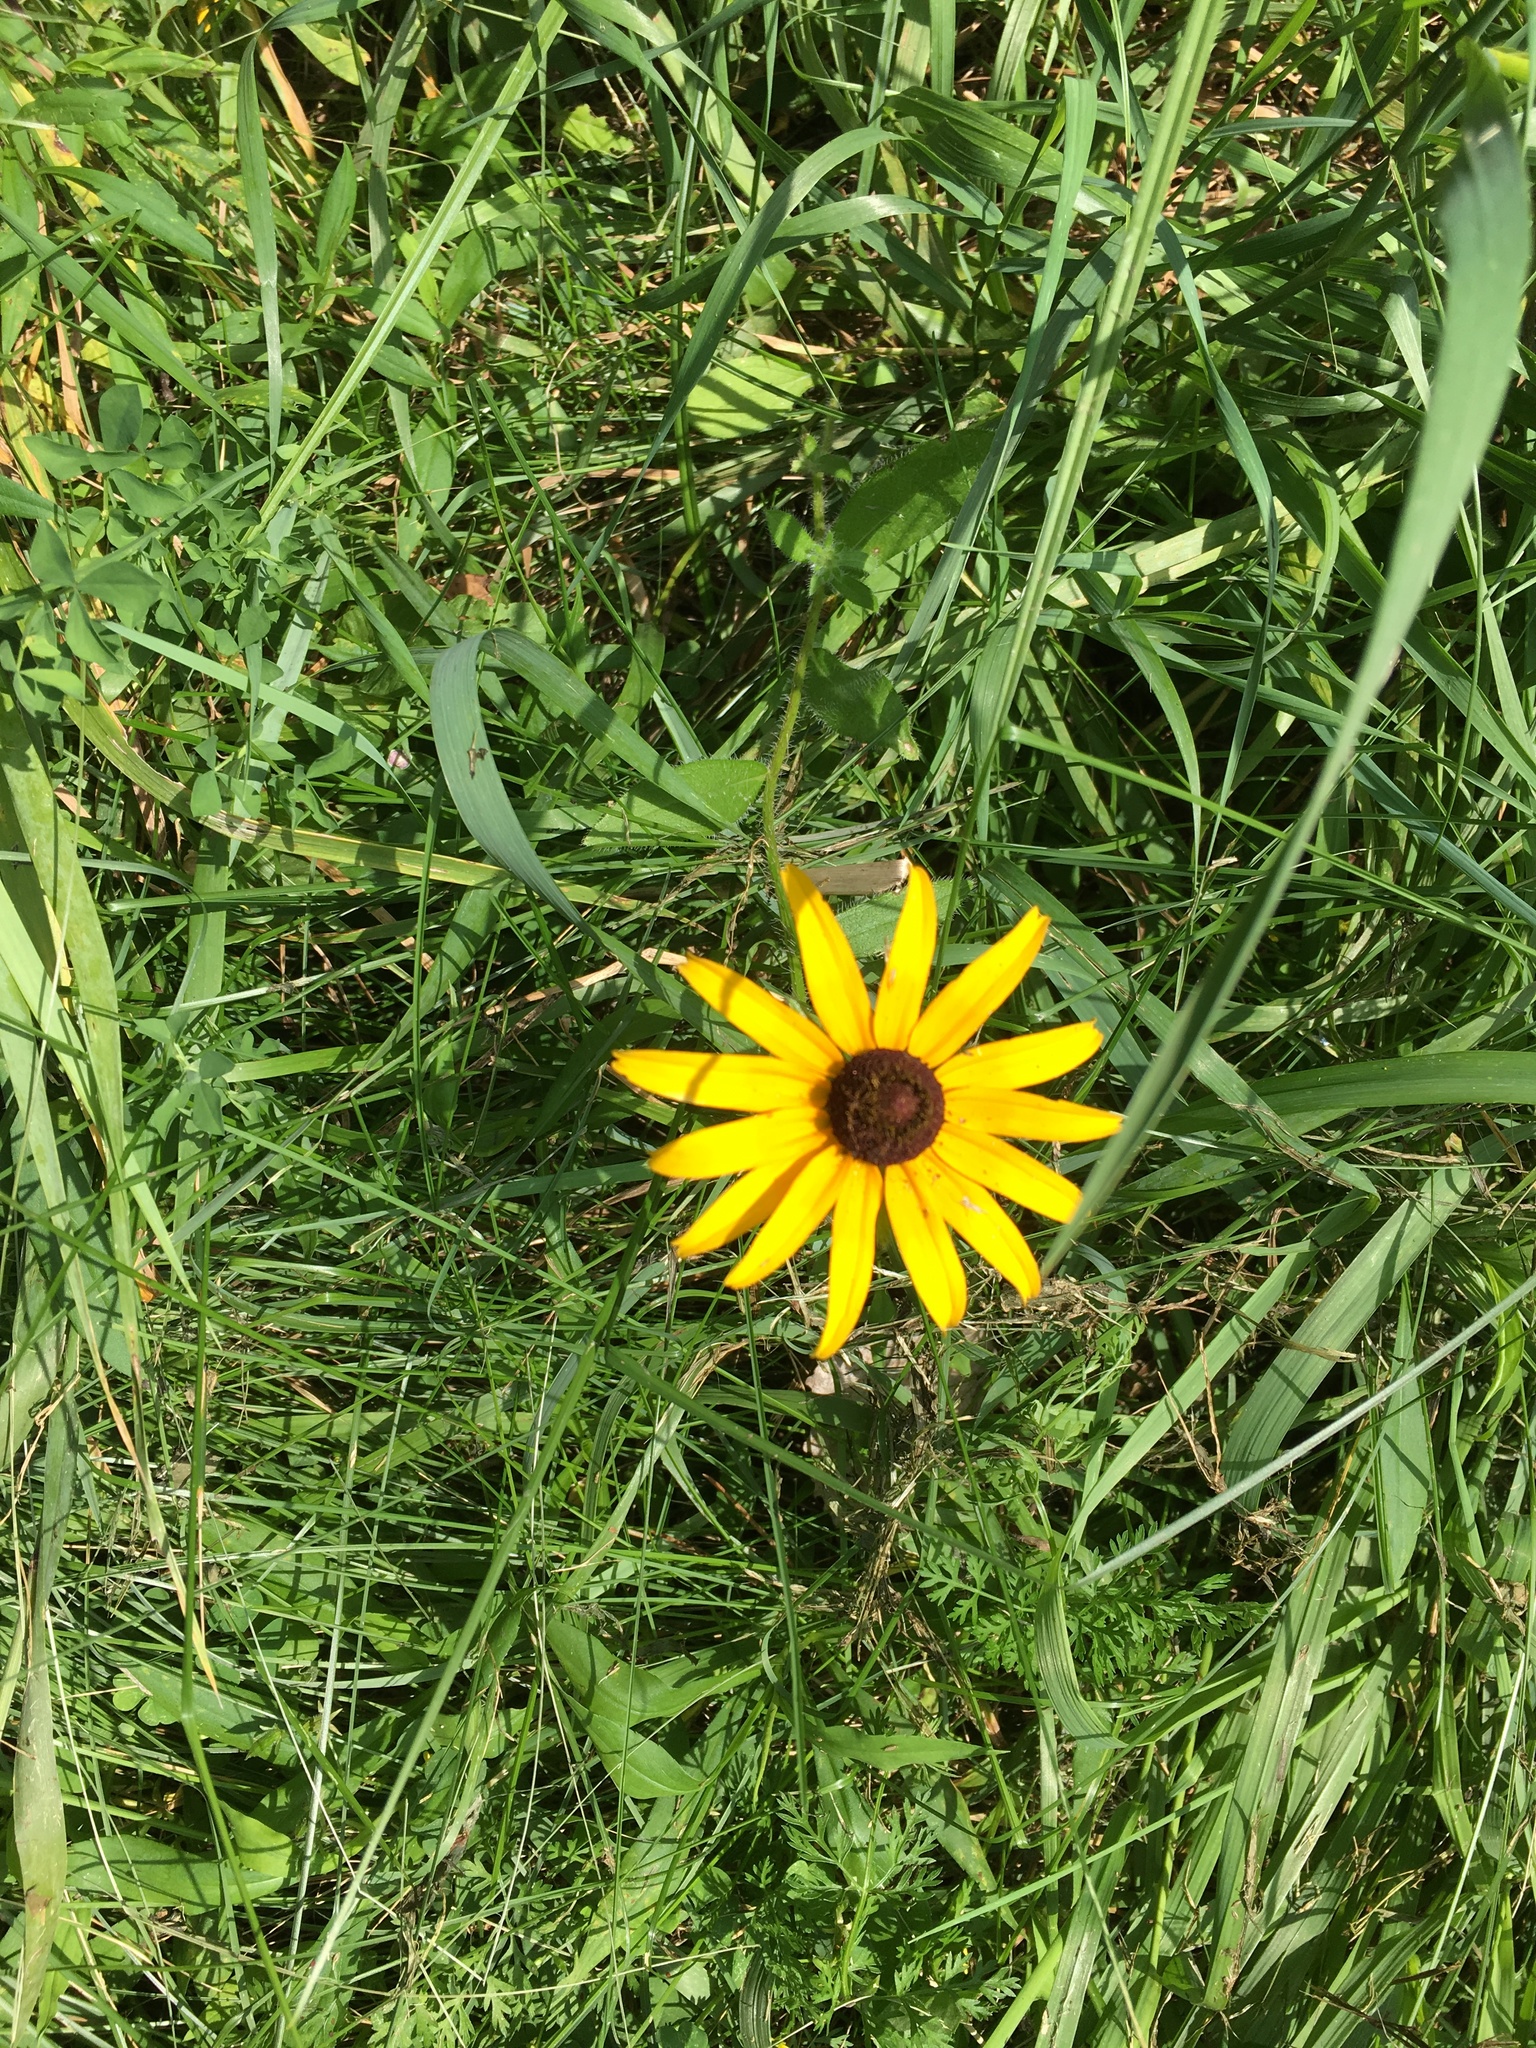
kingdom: Plantae
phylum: Tracheophyta
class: Magnoliopsida
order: Asterales
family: Asteraceae
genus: Rudbeckia
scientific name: Rudbeckia hirta
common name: Black-eyed-susan
